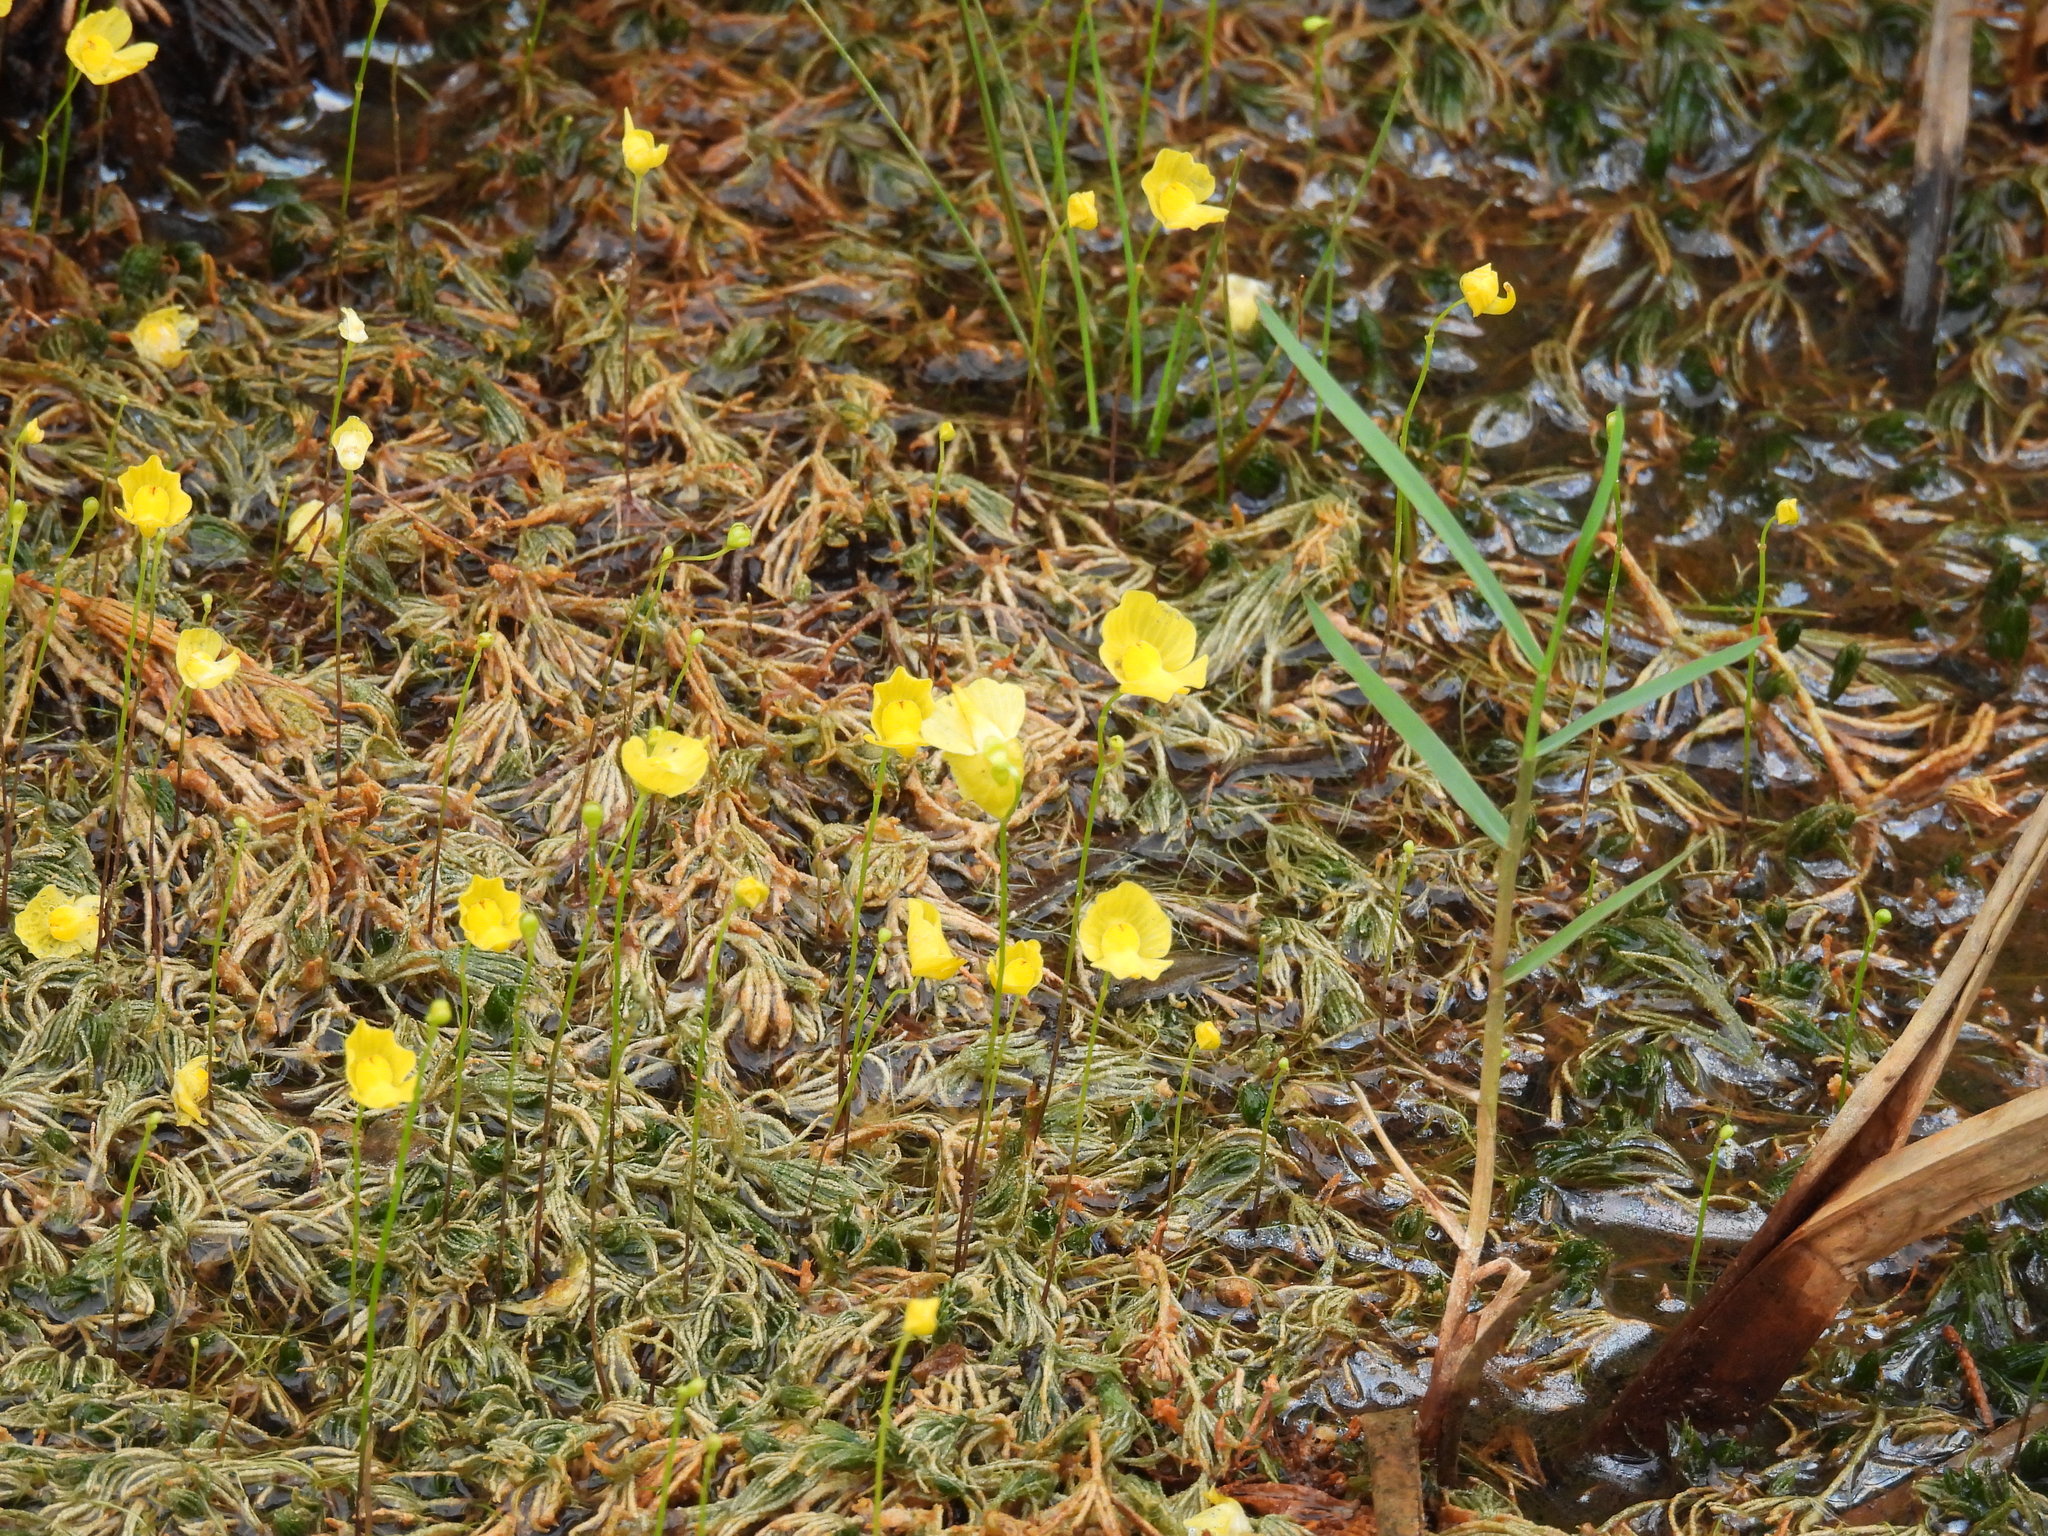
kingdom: Plantae
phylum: Tracheophyta
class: Magnoliopsida
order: Lamiales
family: Lentibulariaceae
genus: Utricularia
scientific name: Utricularia gibba
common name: Humped bladderwort
